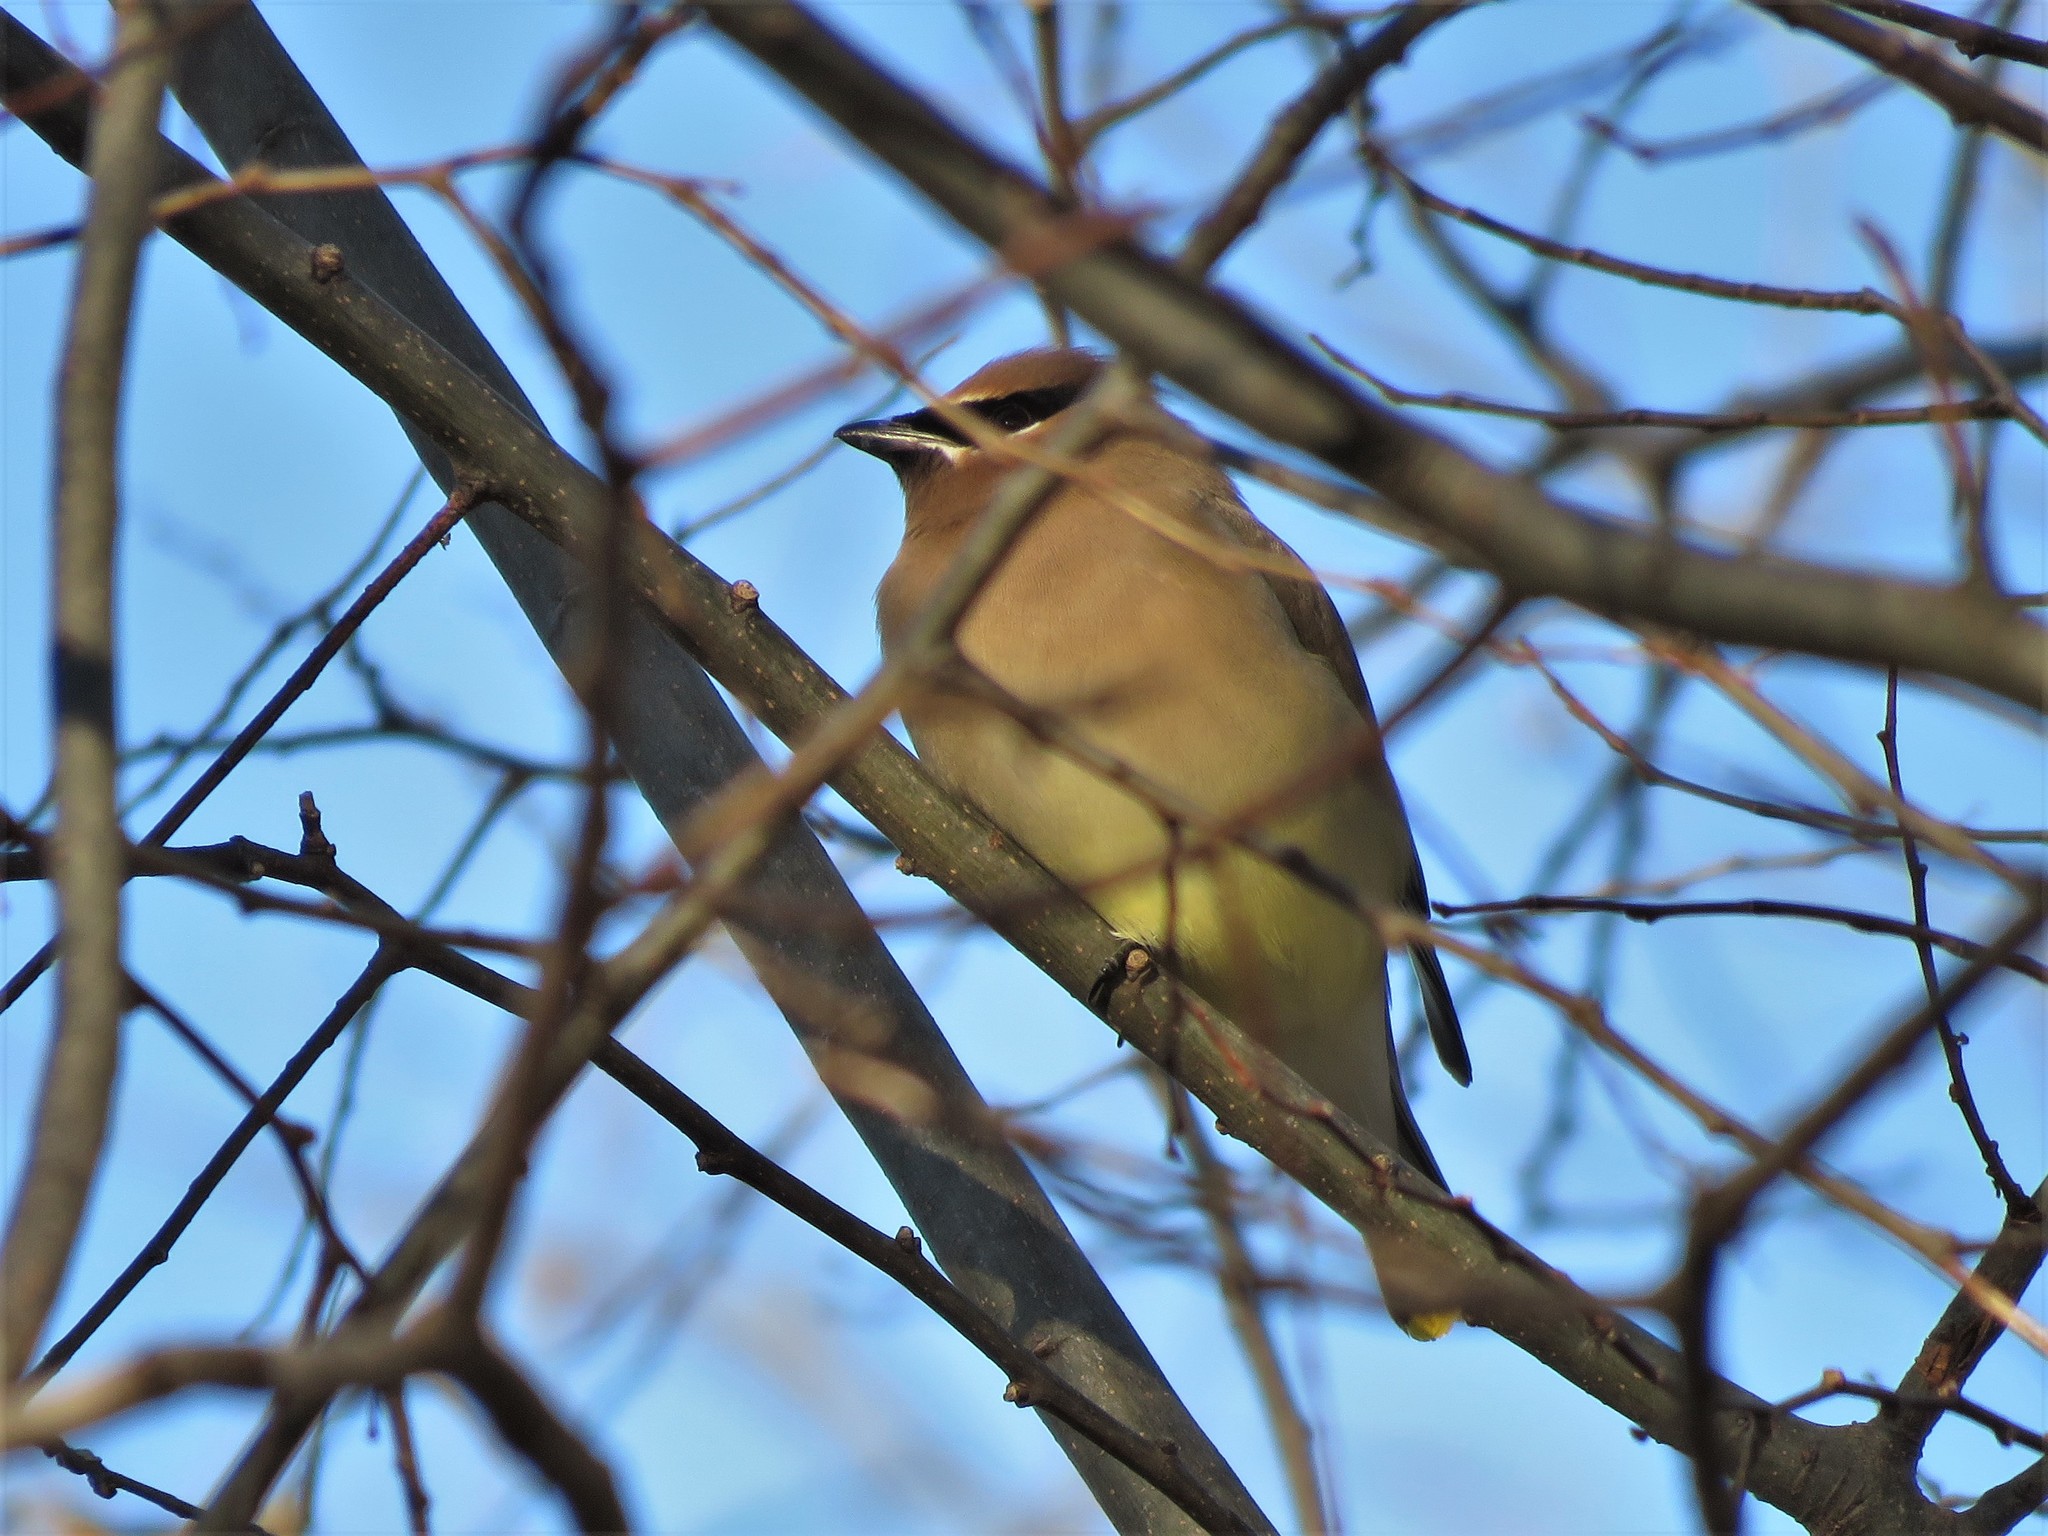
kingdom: Animalia
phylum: Chordata
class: Aves
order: Passeriformes
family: Bombycillidae
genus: Bombycilla
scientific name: Bombycilla cedrorum
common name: Cedar waxwing
